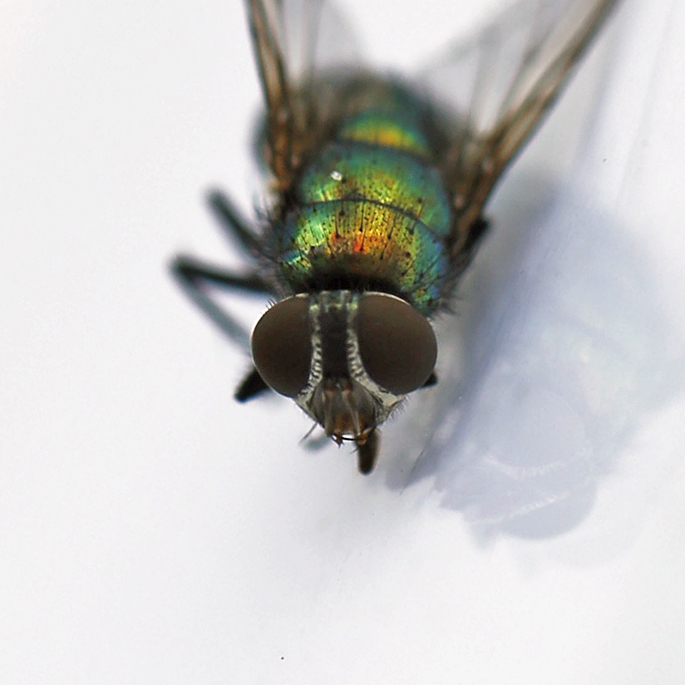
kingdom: Animalia
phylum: Arthropoda
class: Insecta
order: Diptera
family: Calliphoridae
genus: Lucilia
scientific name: Lucilia caeruleiviridis
